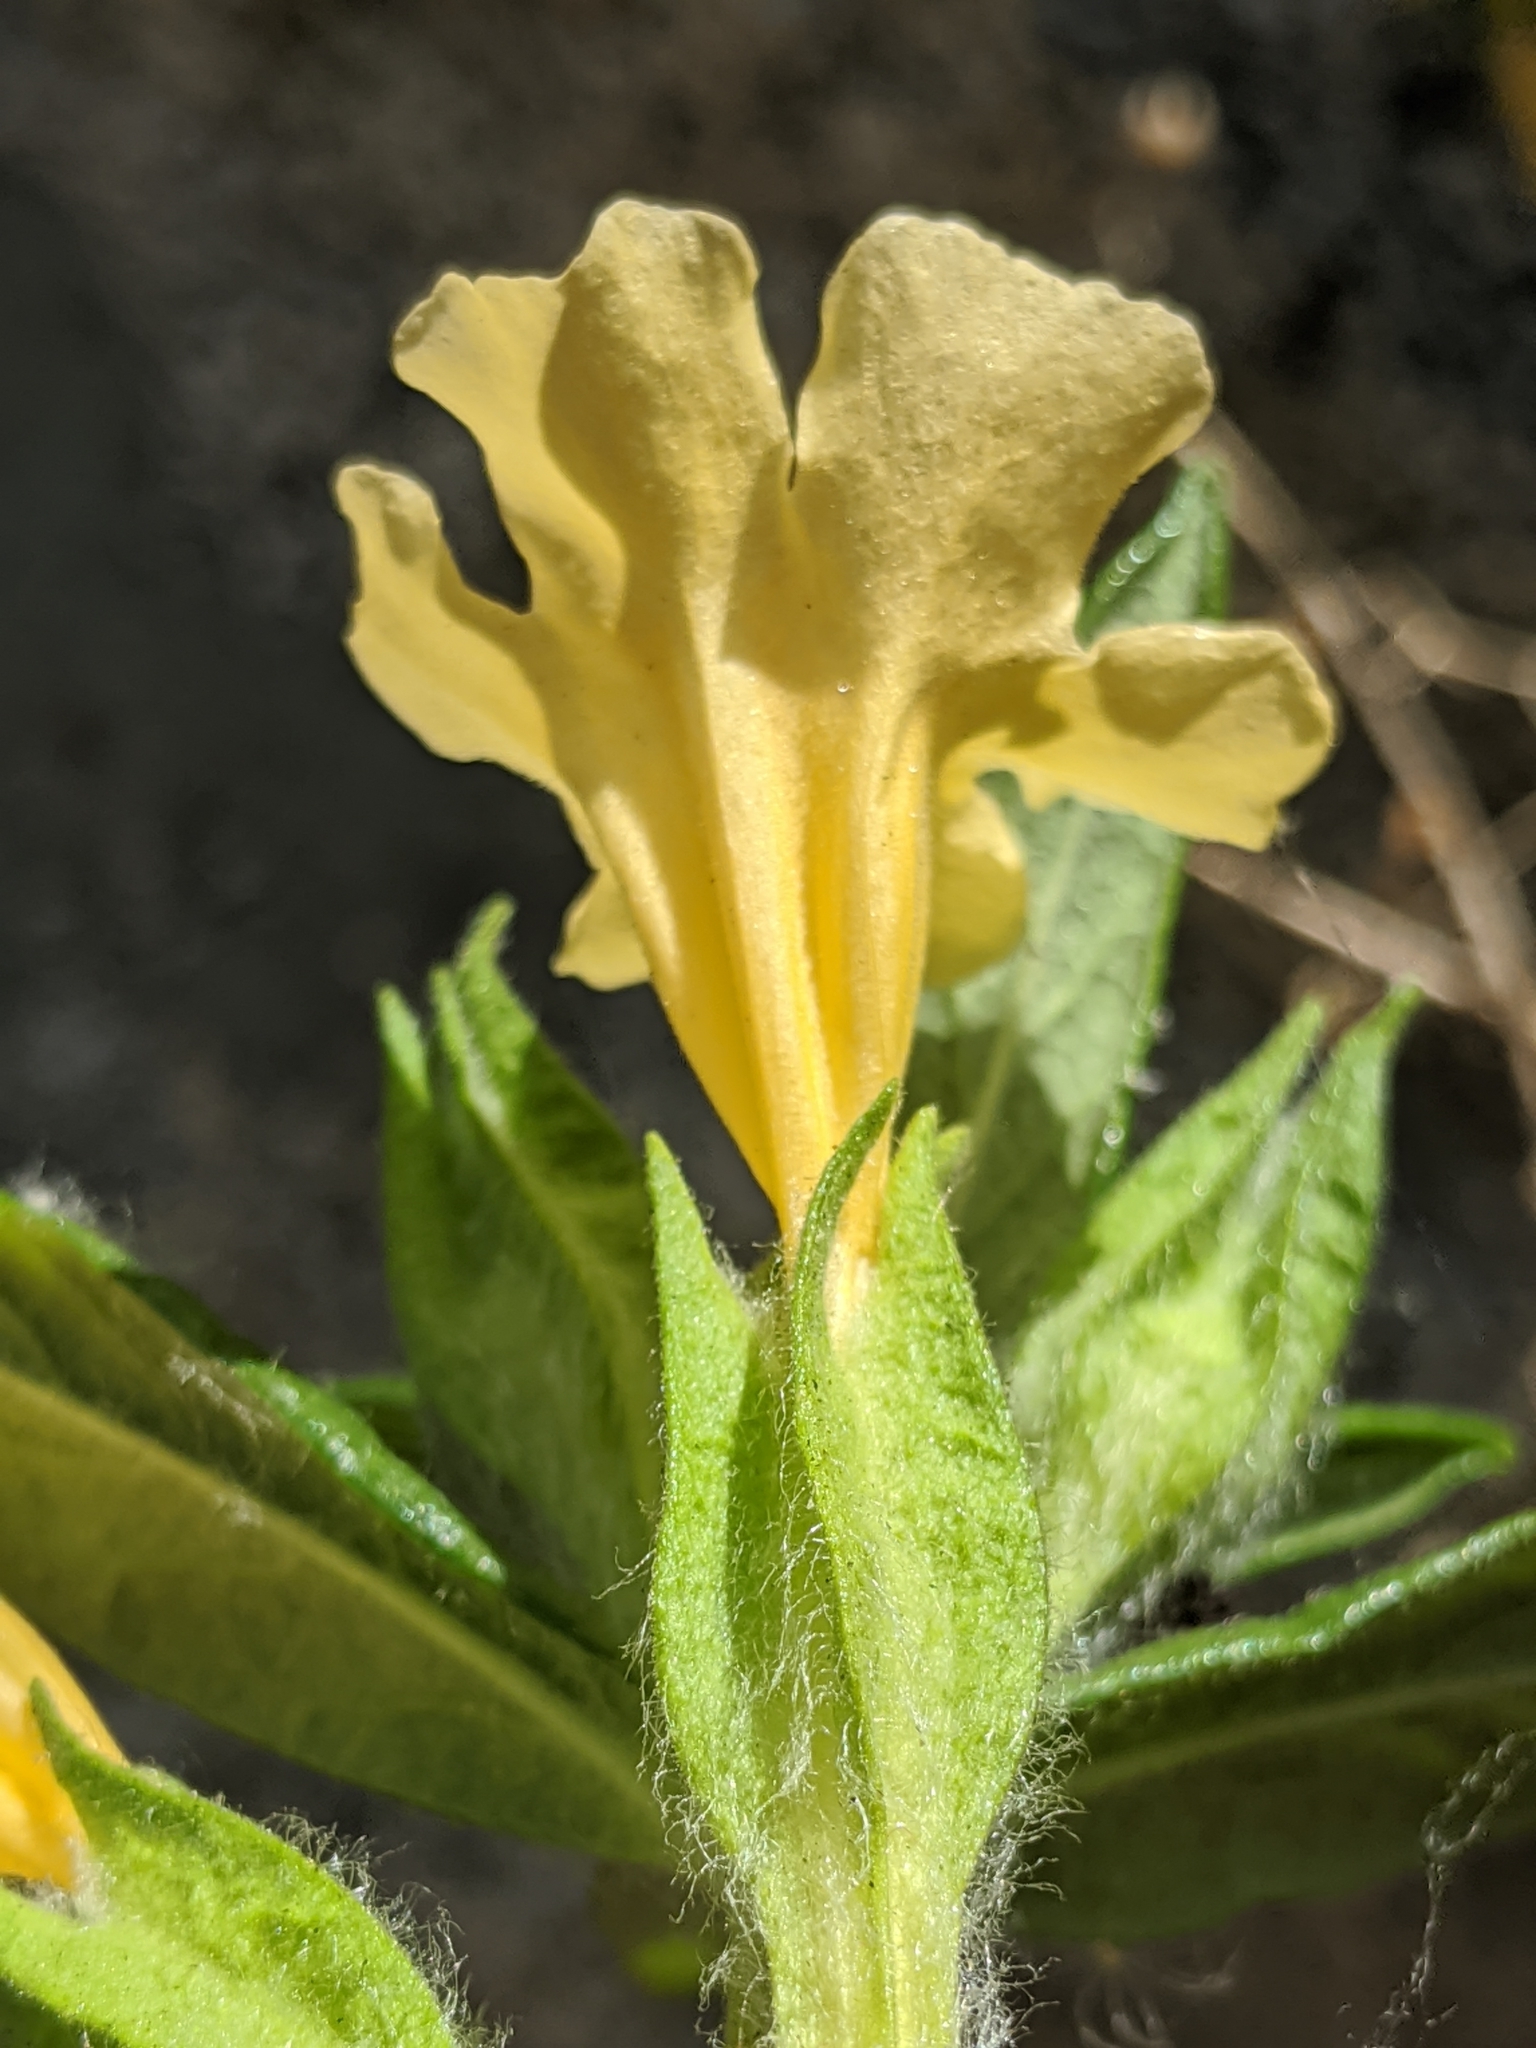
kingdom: Plantae
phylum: Tracheophyta
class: Magnoliopsida
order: Lamiales
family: Phrymaceae
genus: Diplacus
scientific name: Diplacus calycinus
